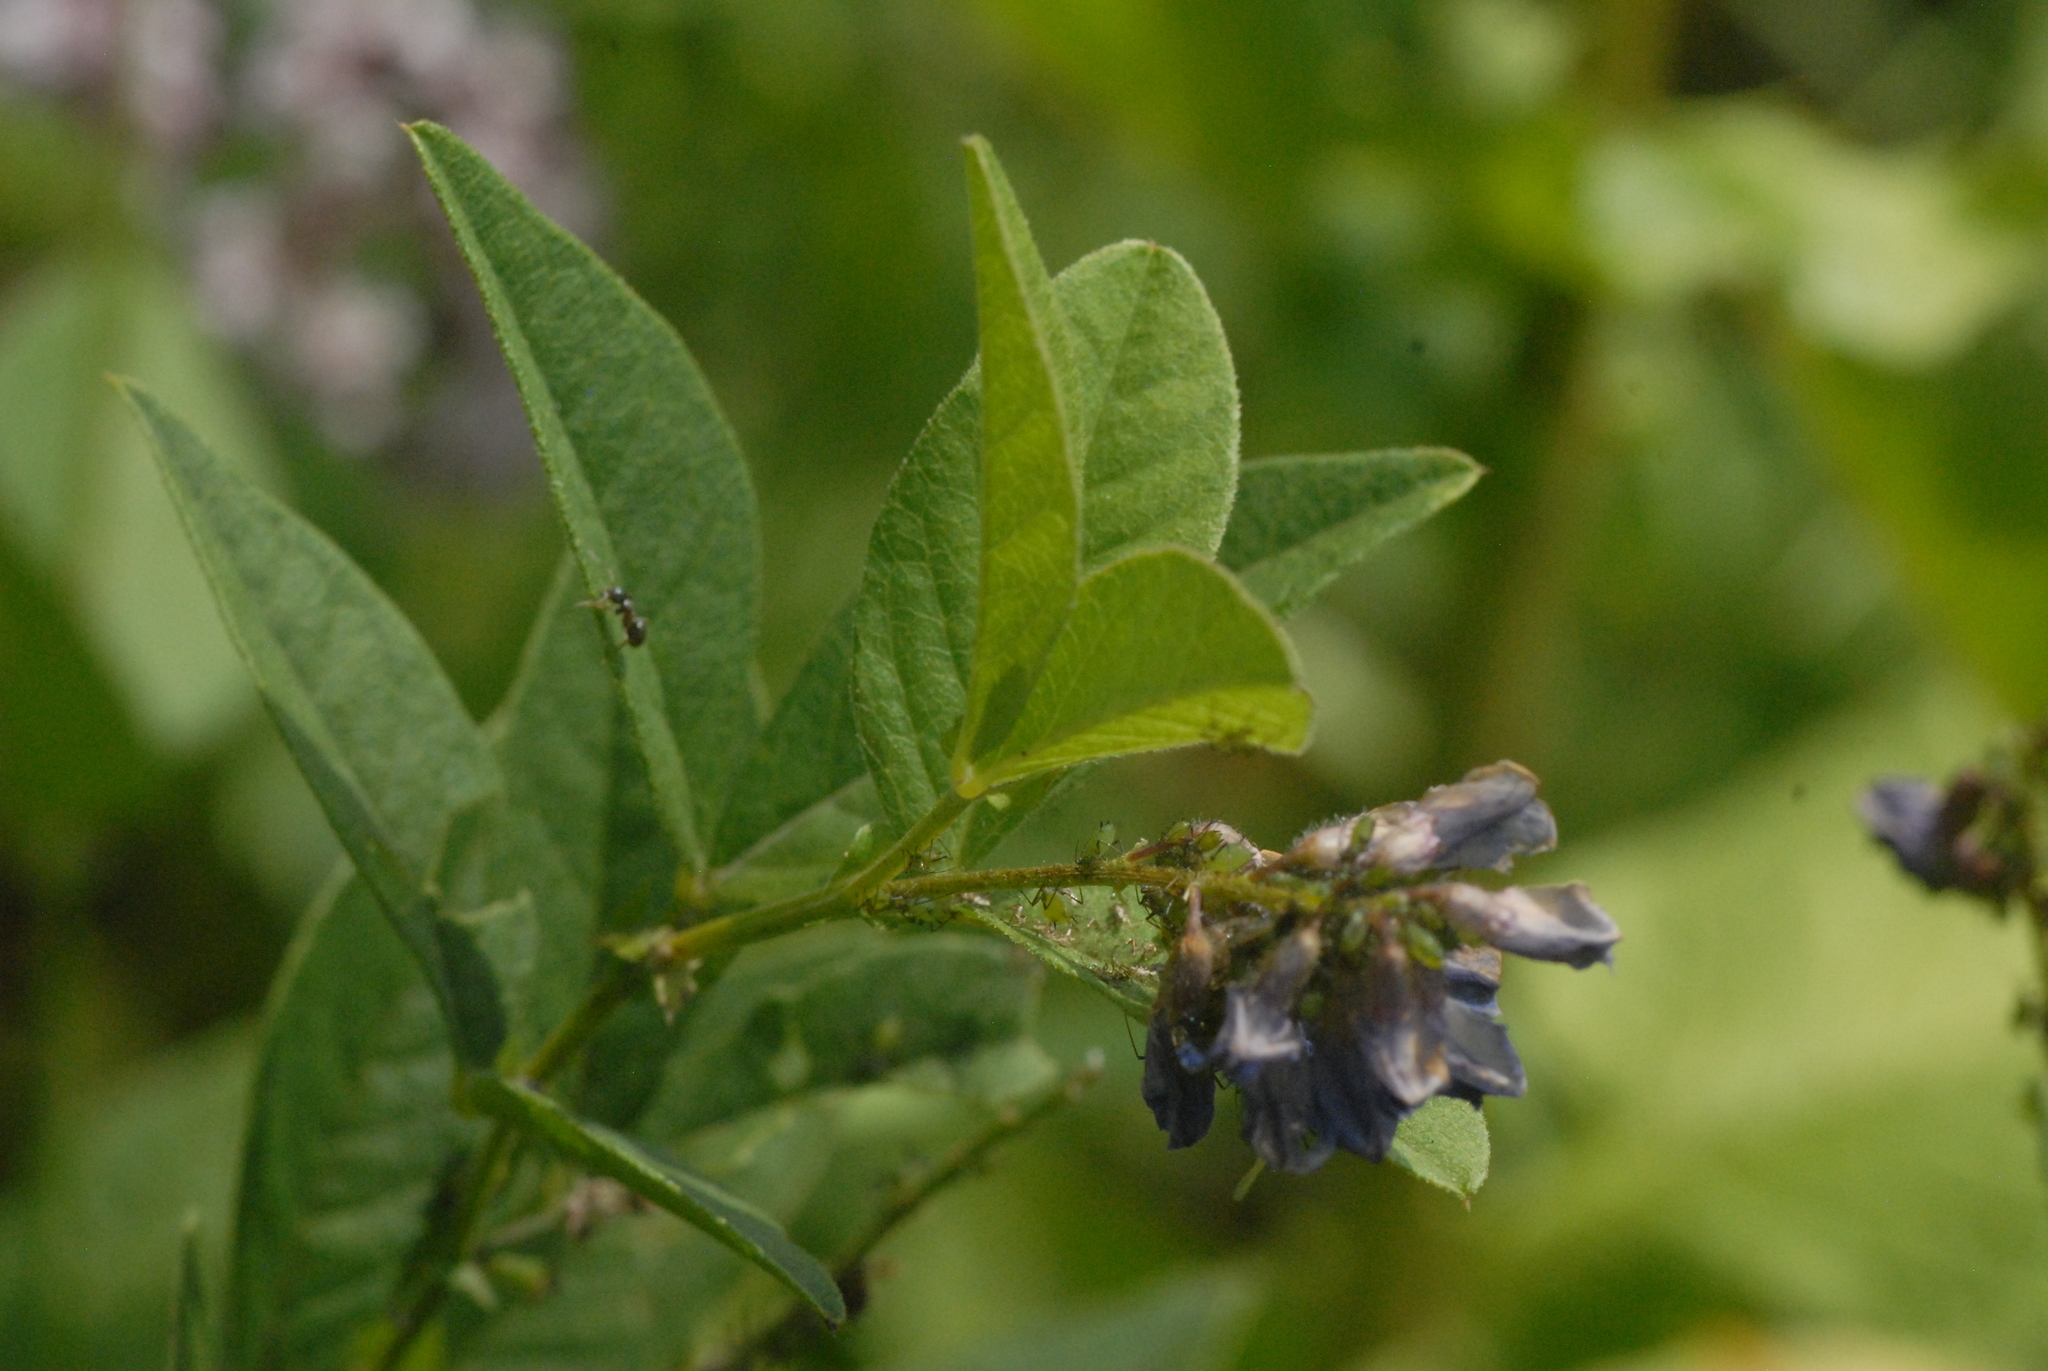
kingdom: Plantae
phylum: Tracheophyta
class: Magnoliopsida
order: Fabales
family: Fabaceae
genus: Vicia
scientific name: Vicia unijuga
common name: Two-leaf vetch
